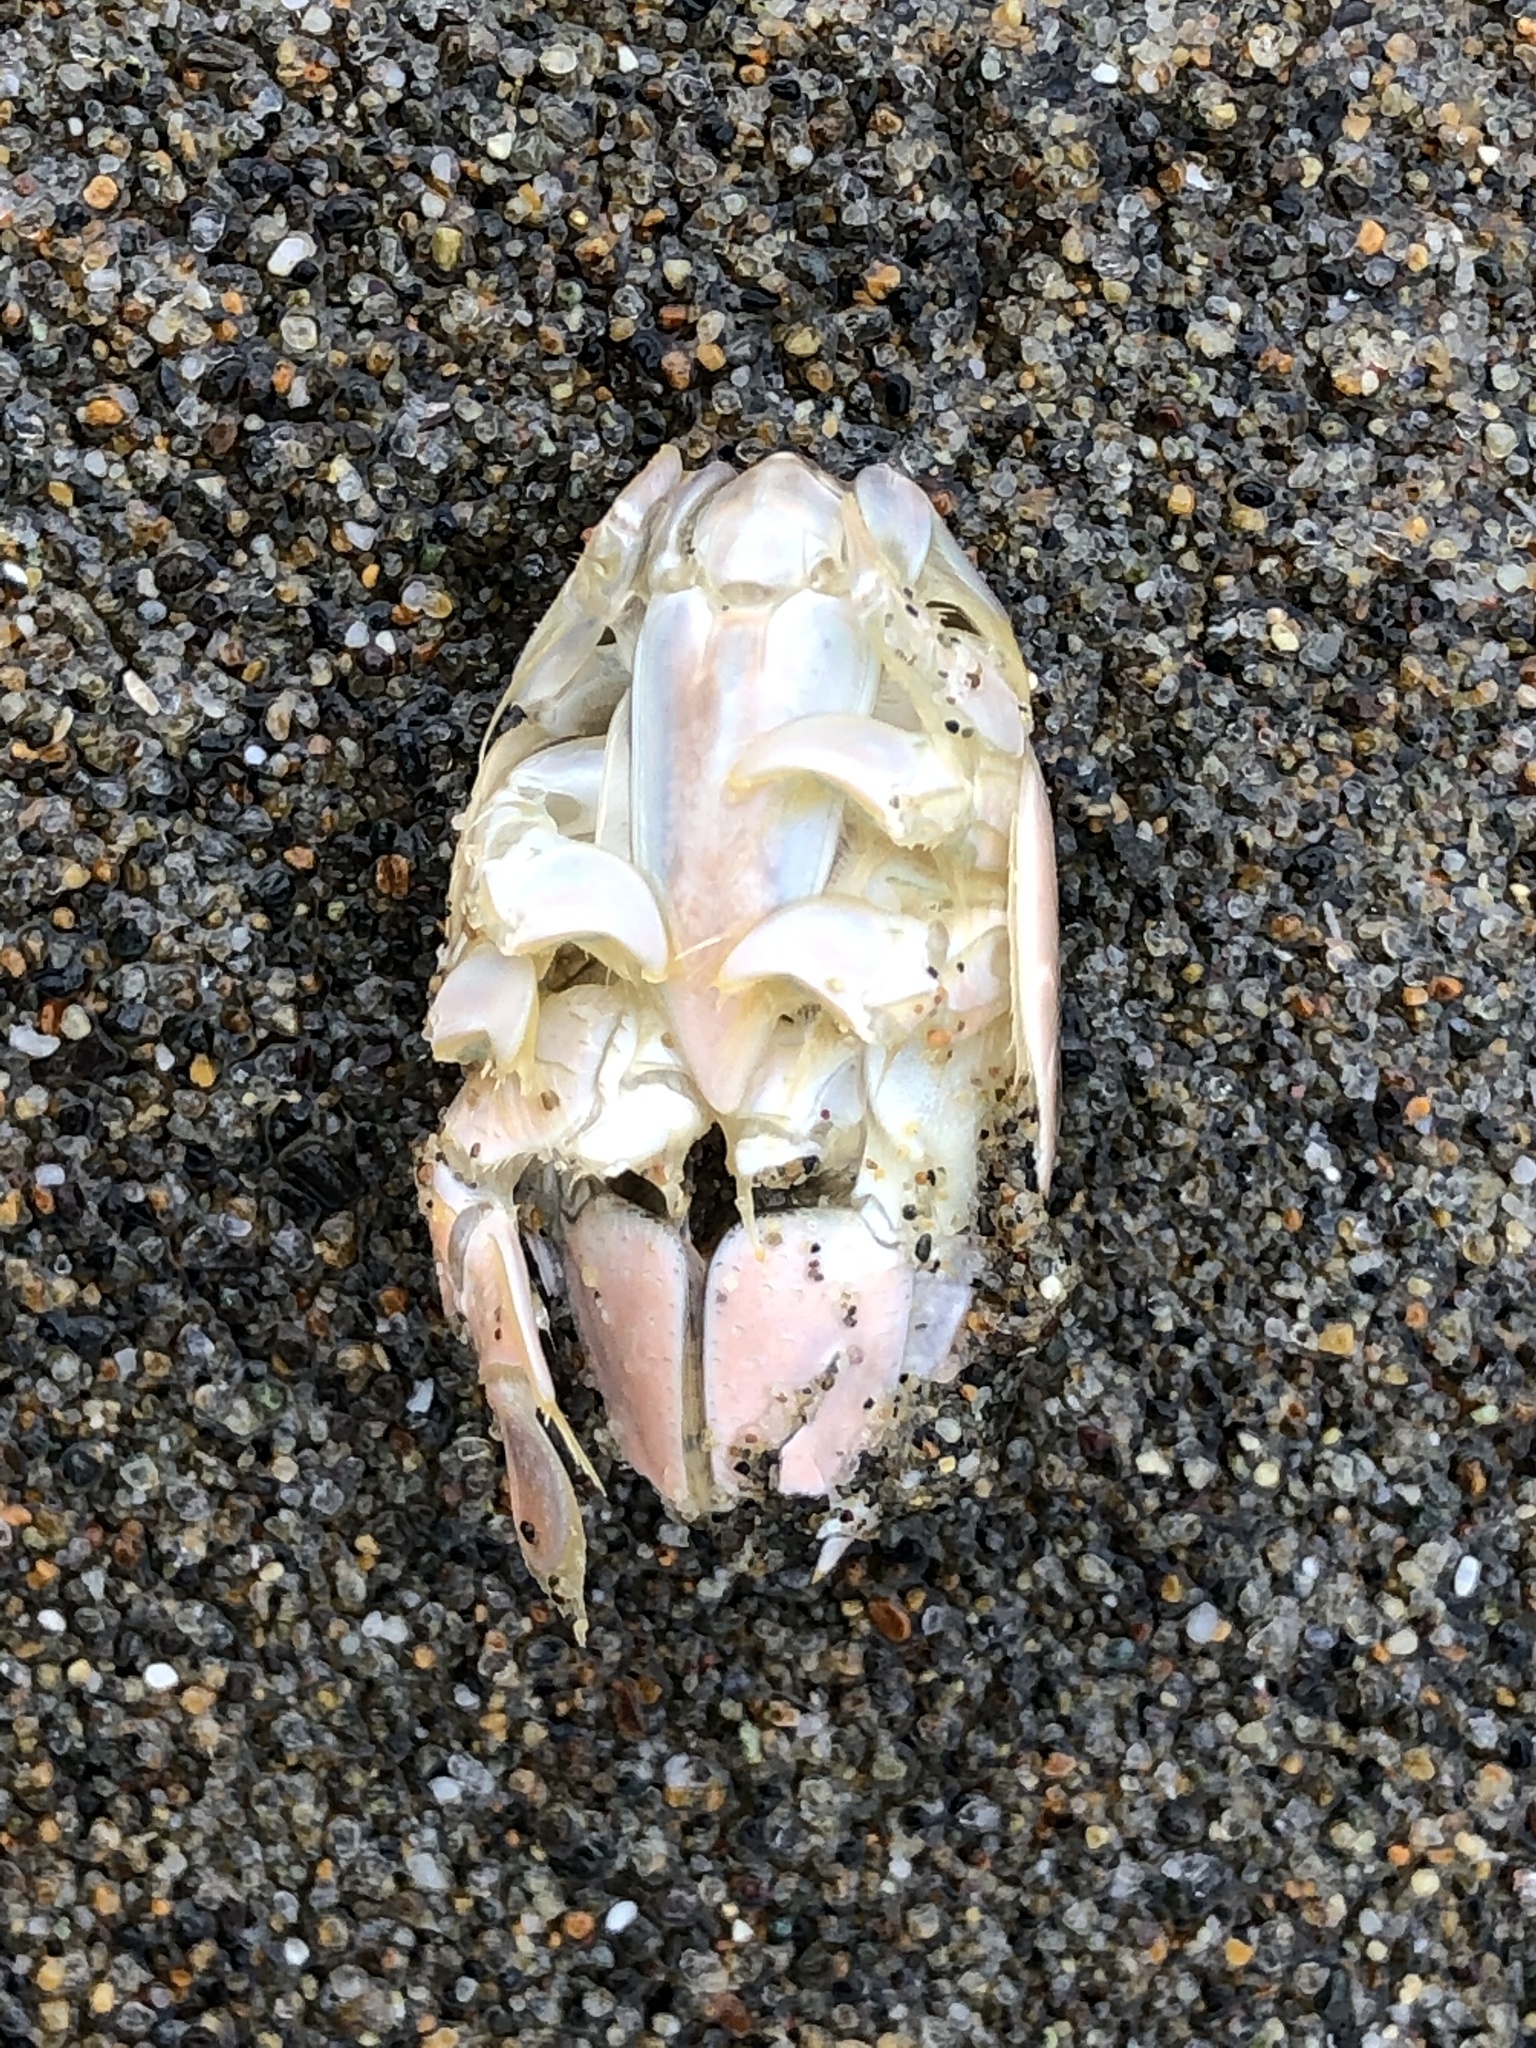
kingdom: Animalia
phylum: Arthropoda
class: Malacostraca
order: Decapoda
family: Hippidae
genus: Emerita
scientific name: Emerita analoga
